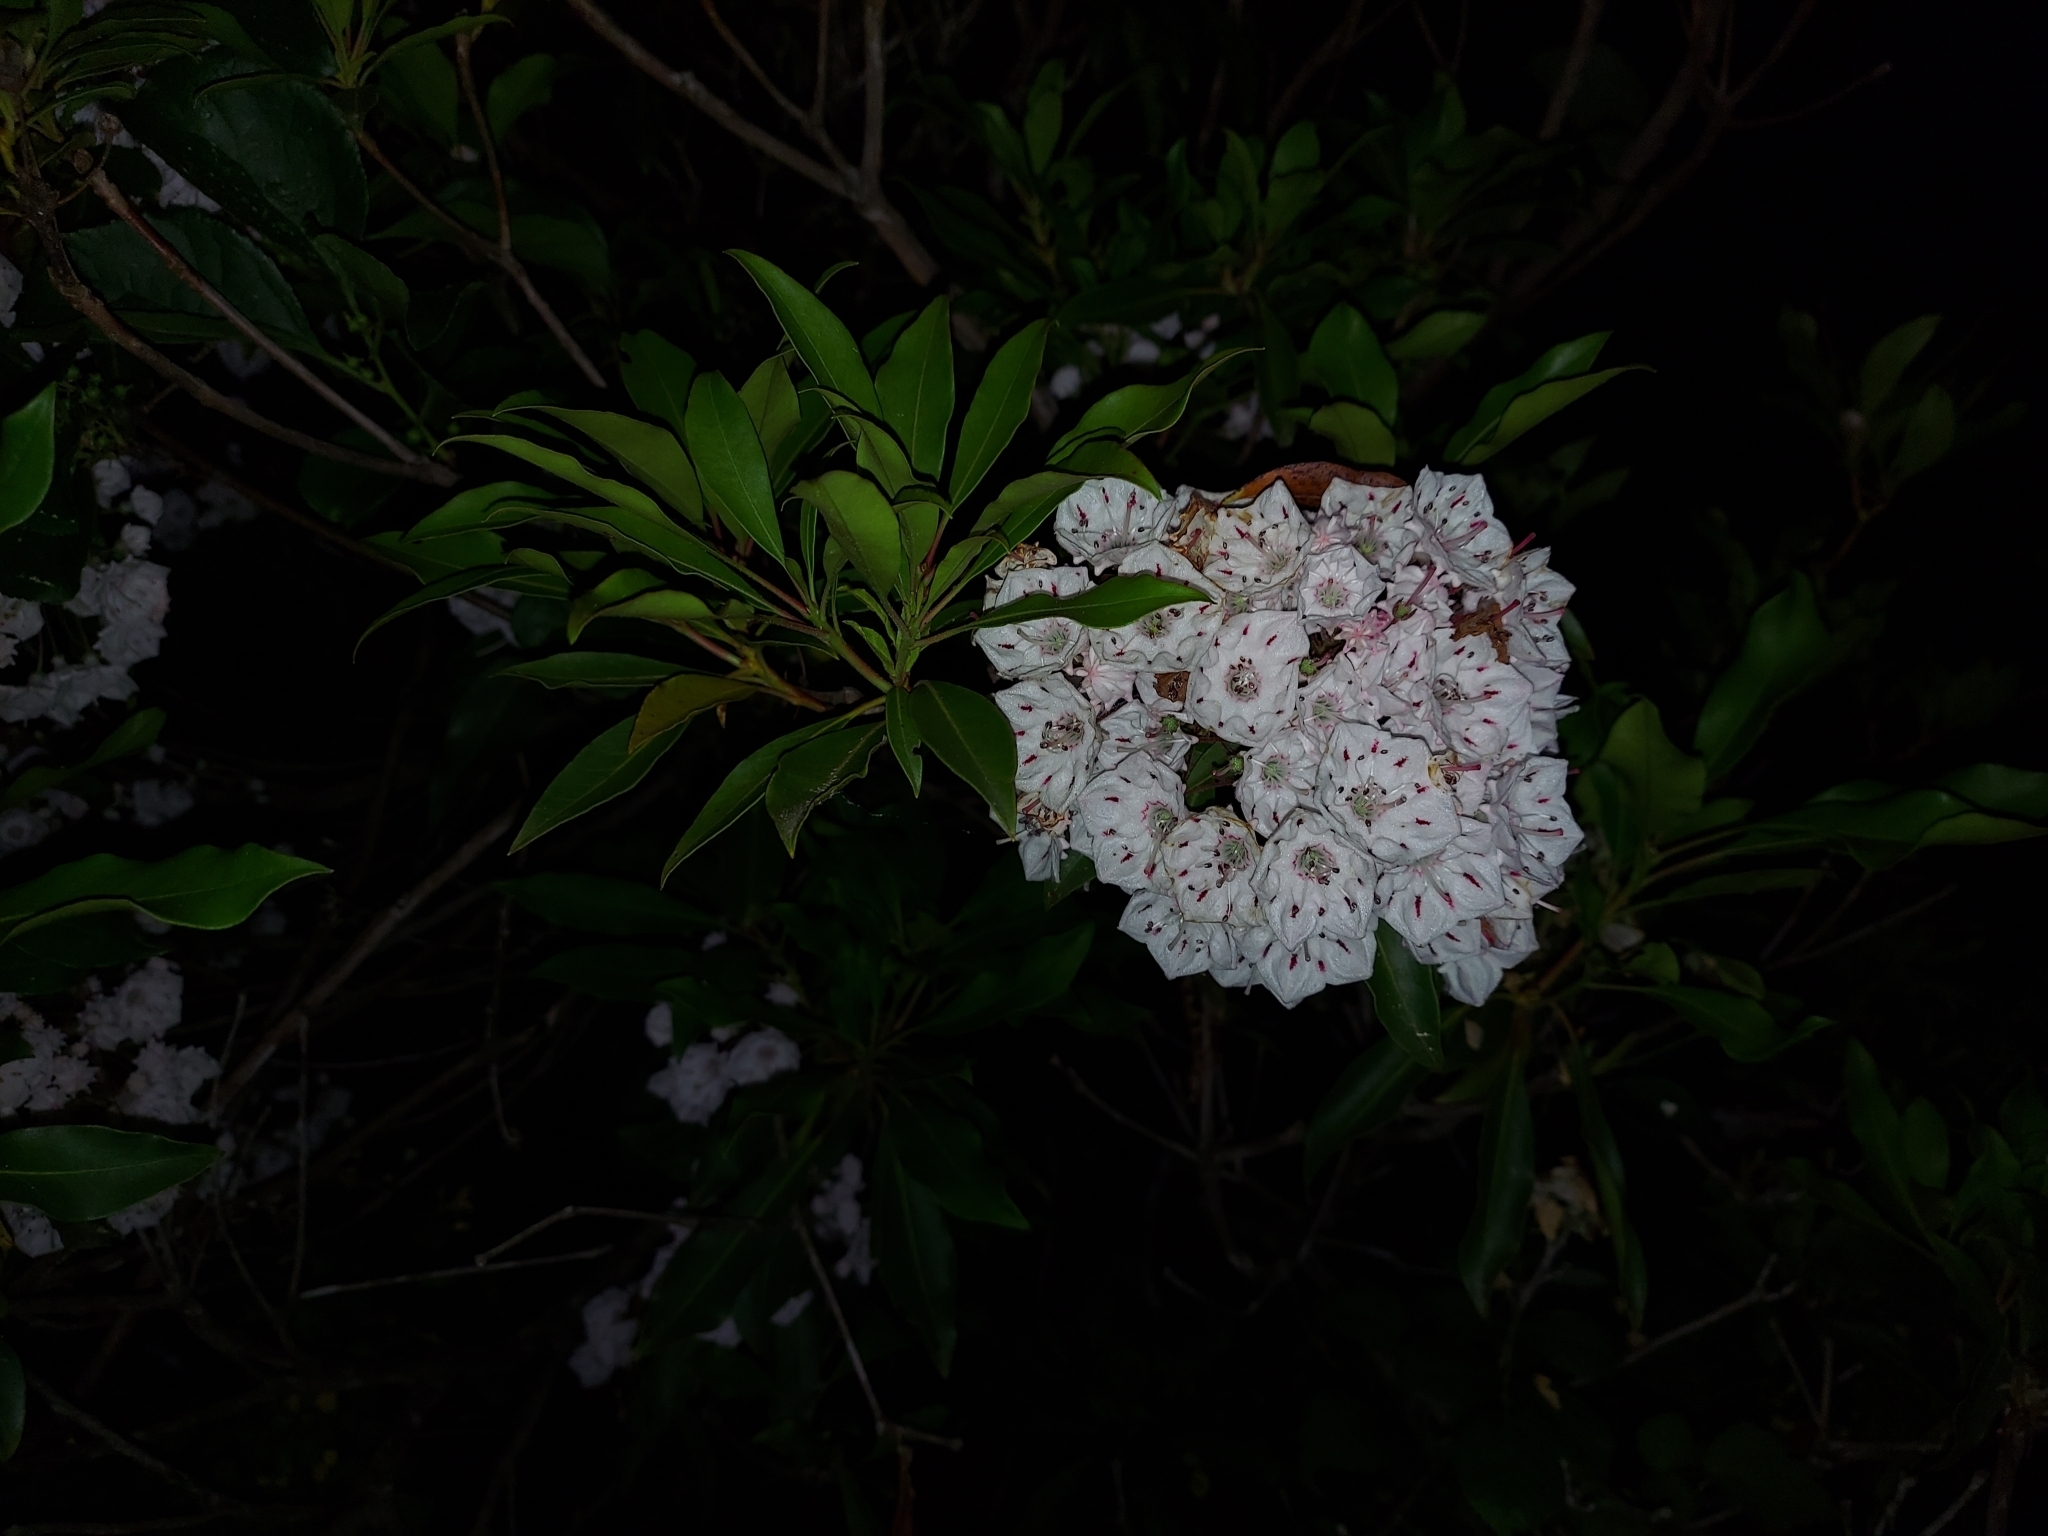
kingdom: Plantae
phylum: Tracheophyta
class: Magnoliopsida
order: Ericales
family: Ericaceae
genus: Kalmia
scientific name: Kalmia latifolia
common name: Mountain-laurel
